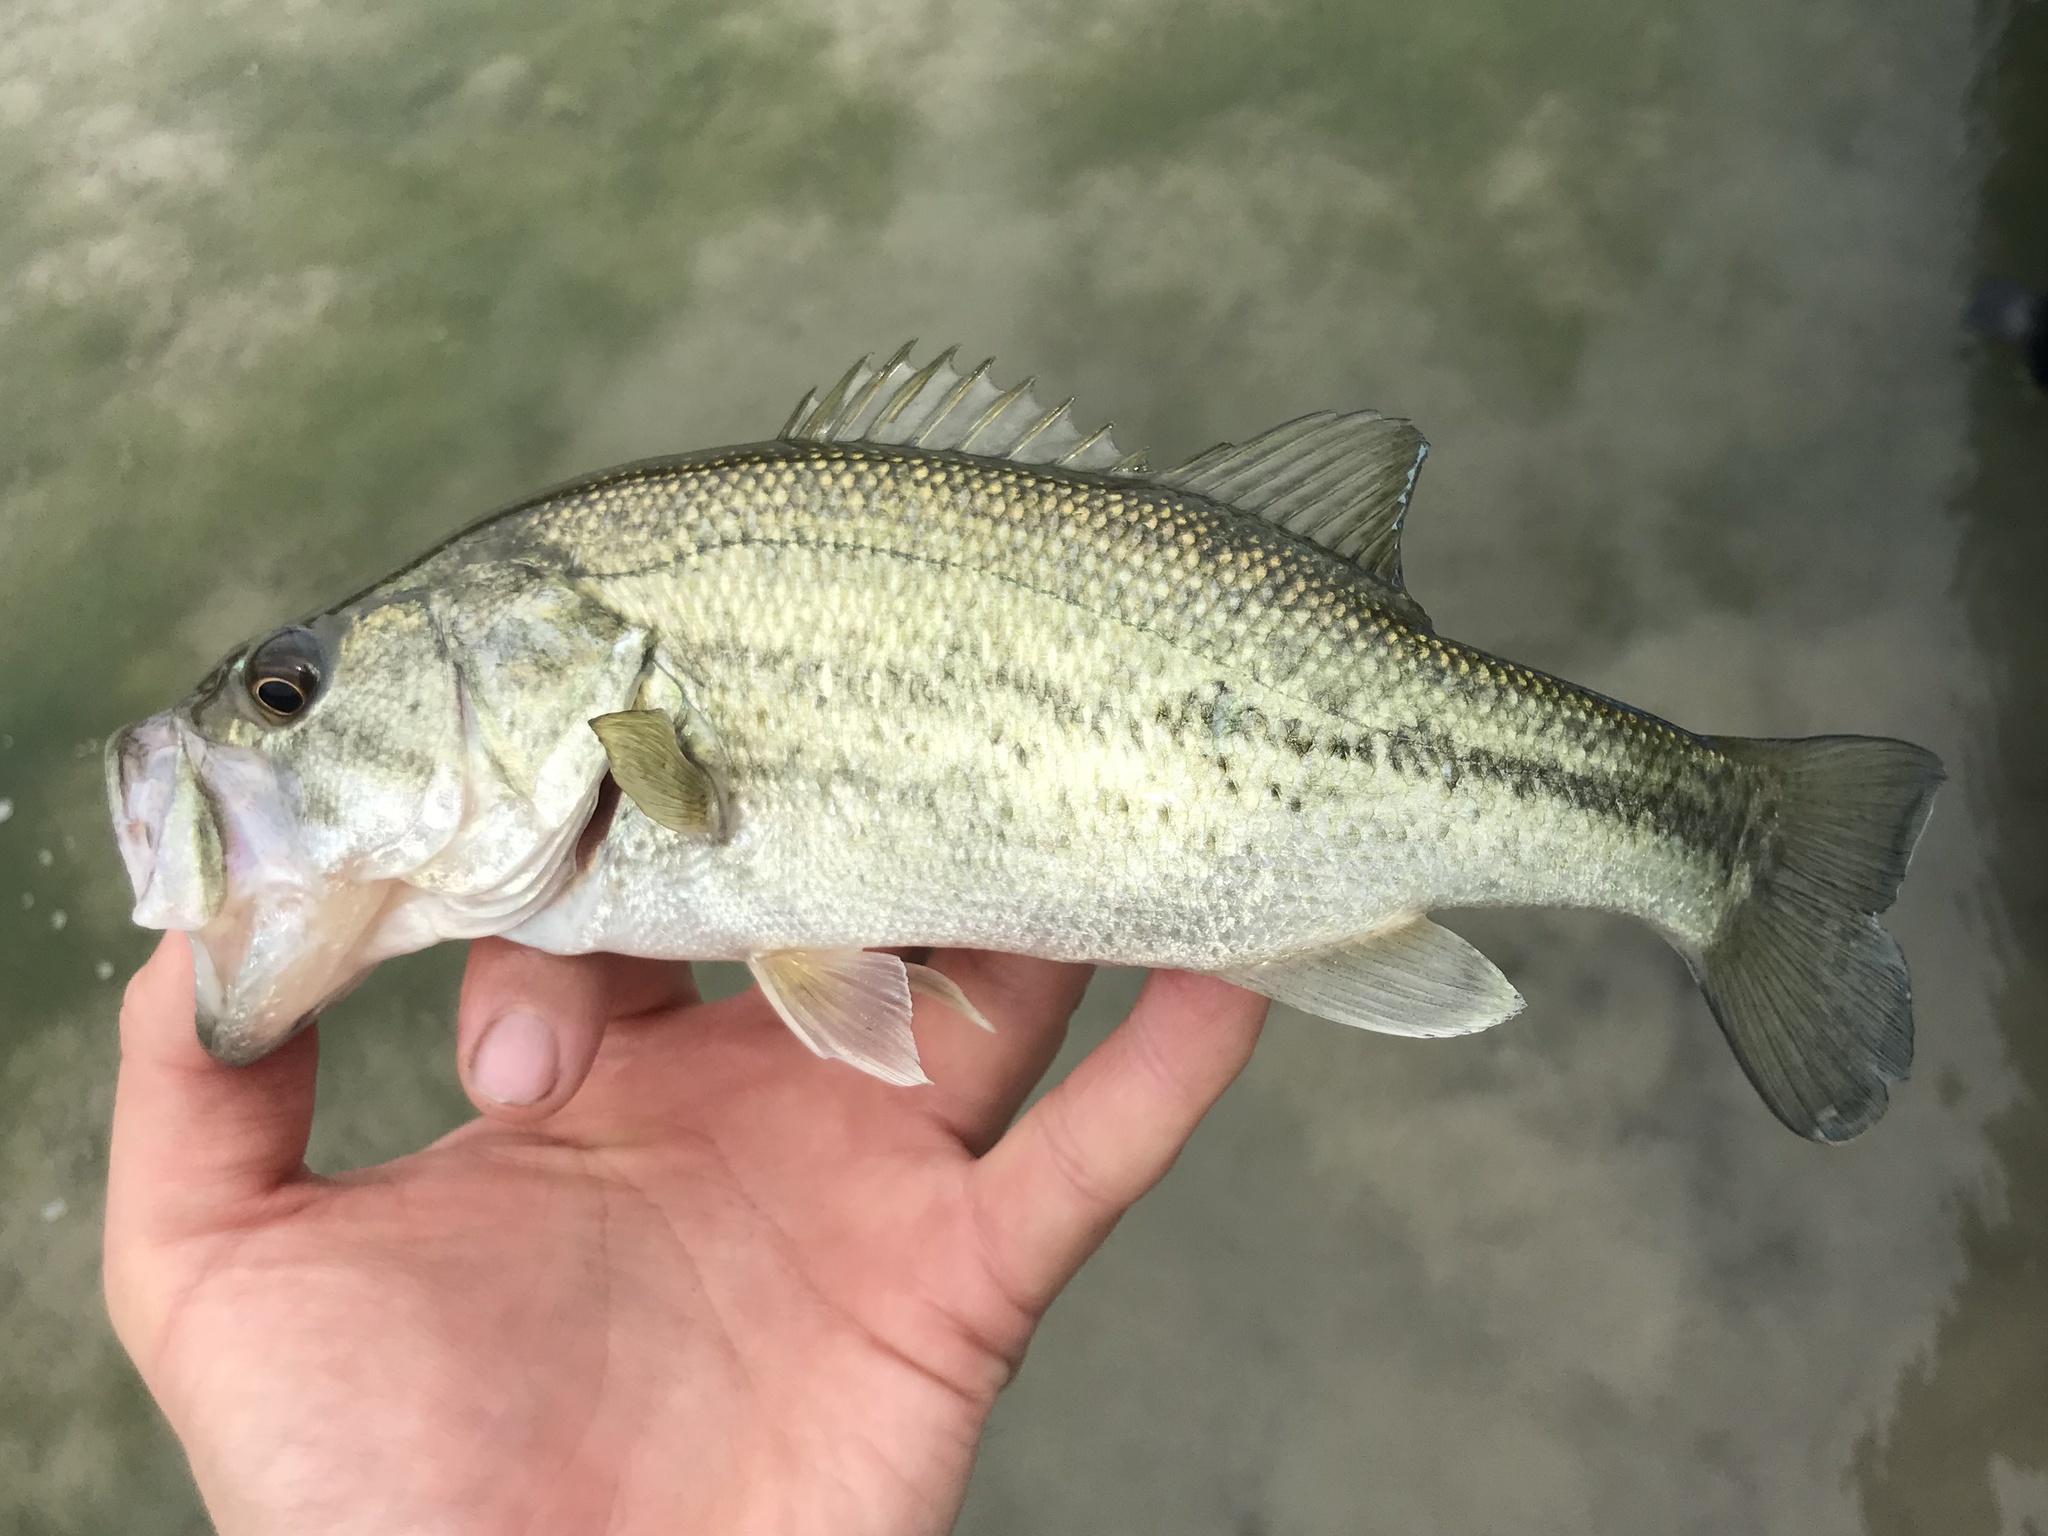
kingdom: Animalia
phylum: Chordata
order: Perciformes
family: Centrarchidae
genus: Micropterus
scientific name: Micropterus
